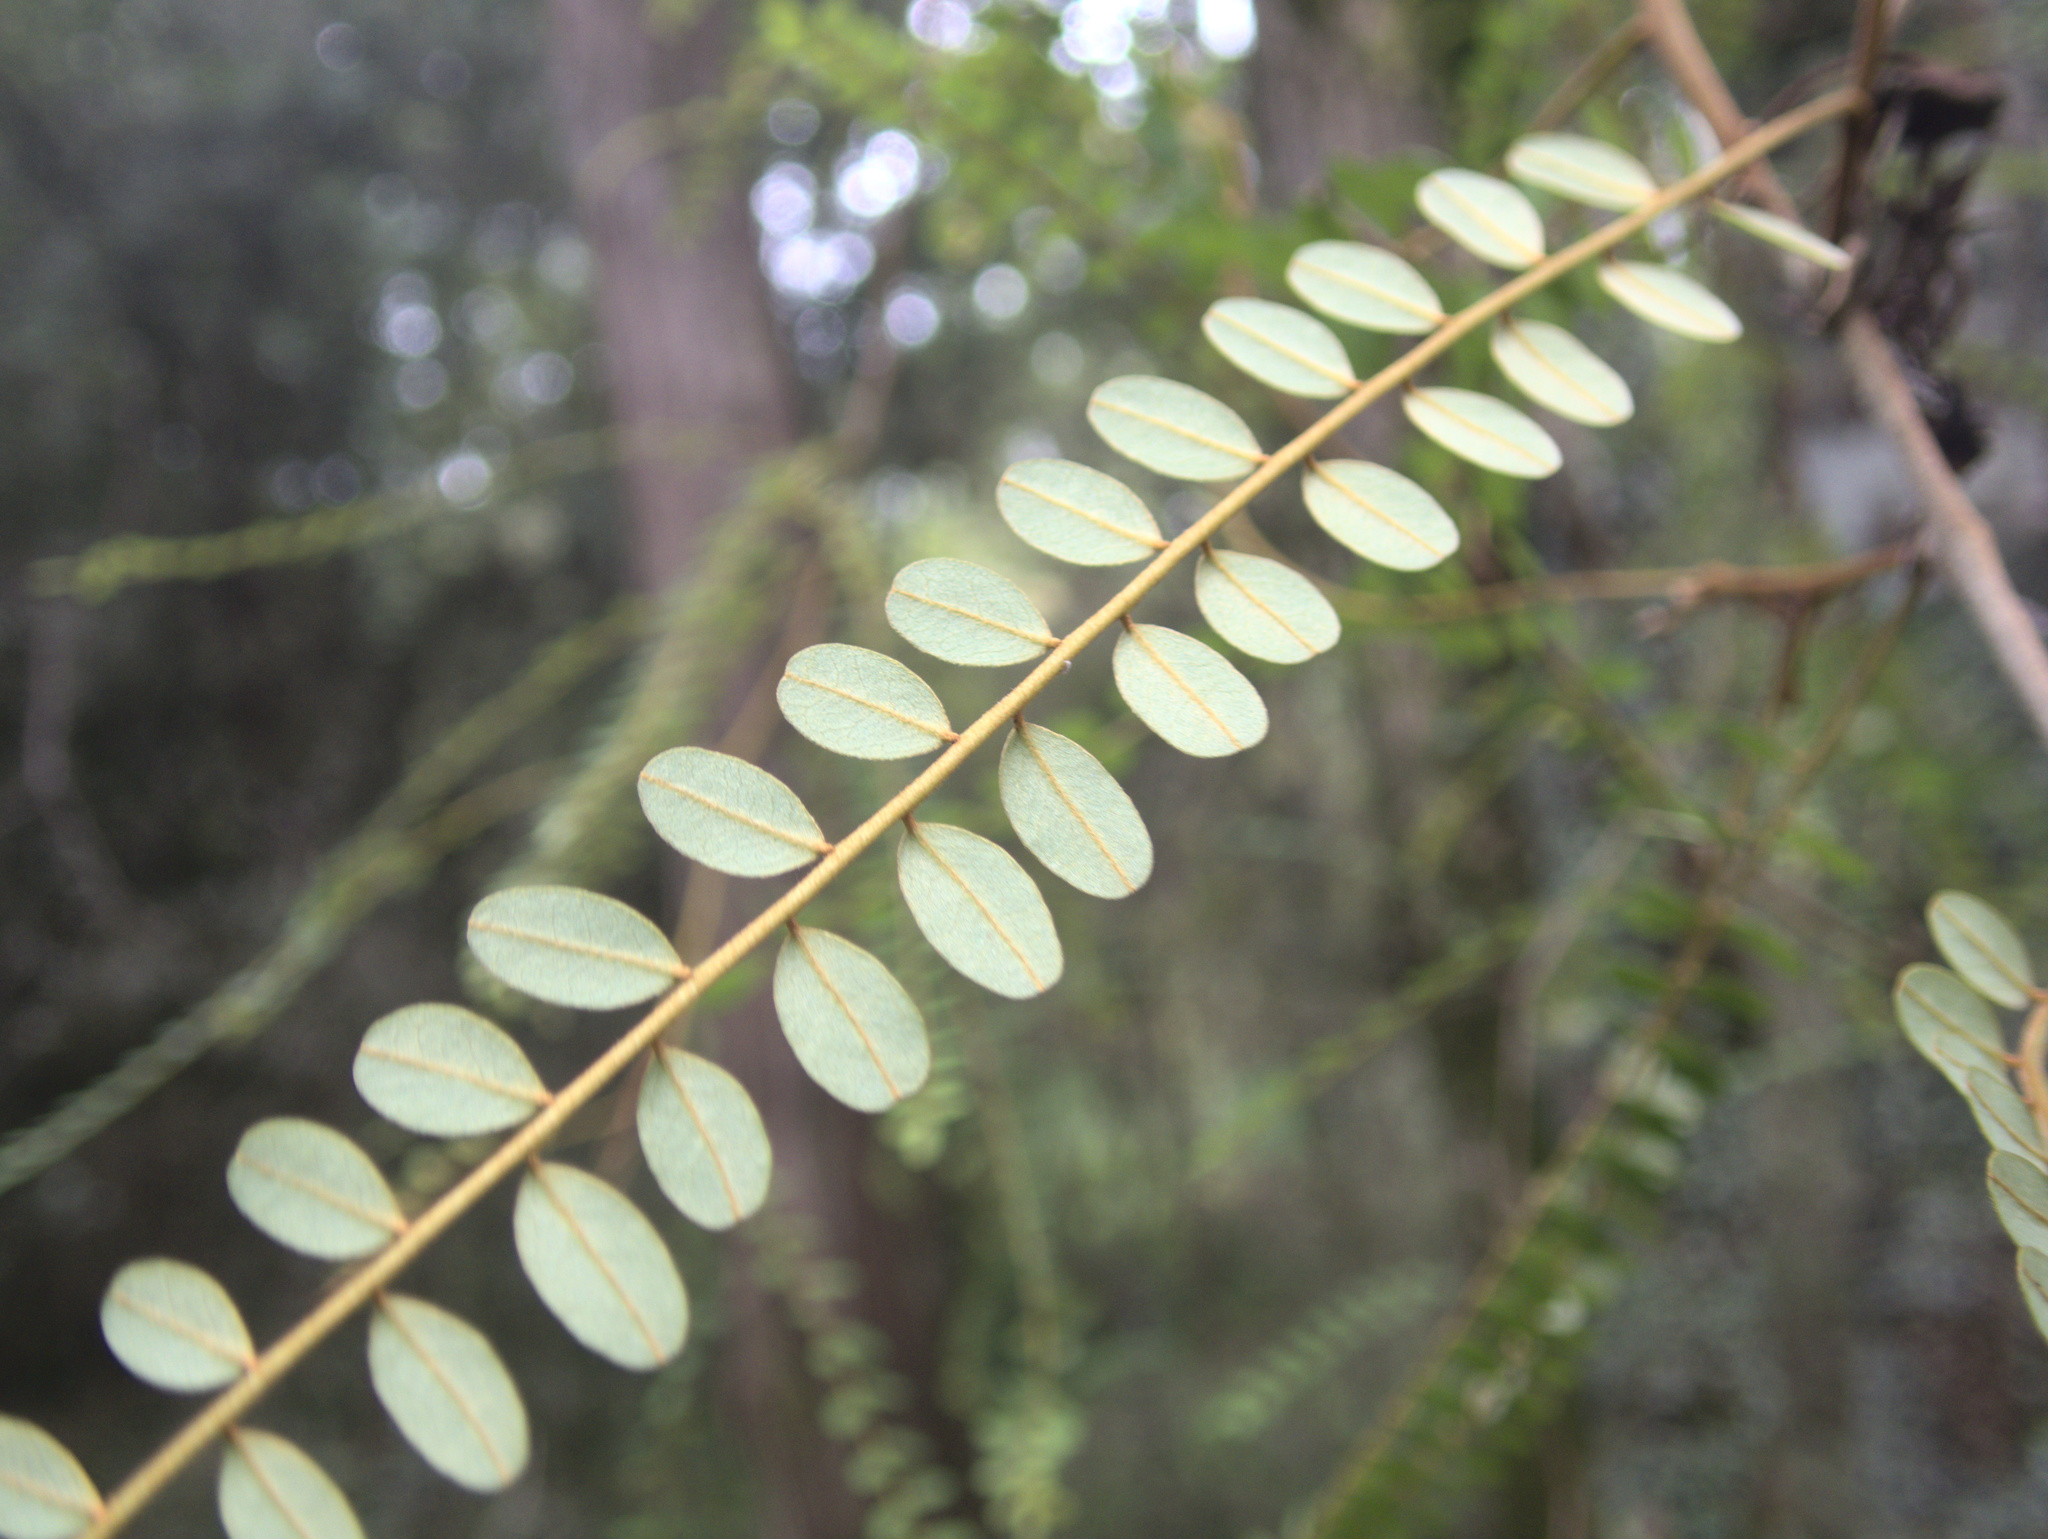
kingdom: Plantae
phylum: Tracheophyta
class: Magnoliopsida
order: Fabales
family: Fabaceae
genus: Sophora
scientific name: Sophora microphylla
